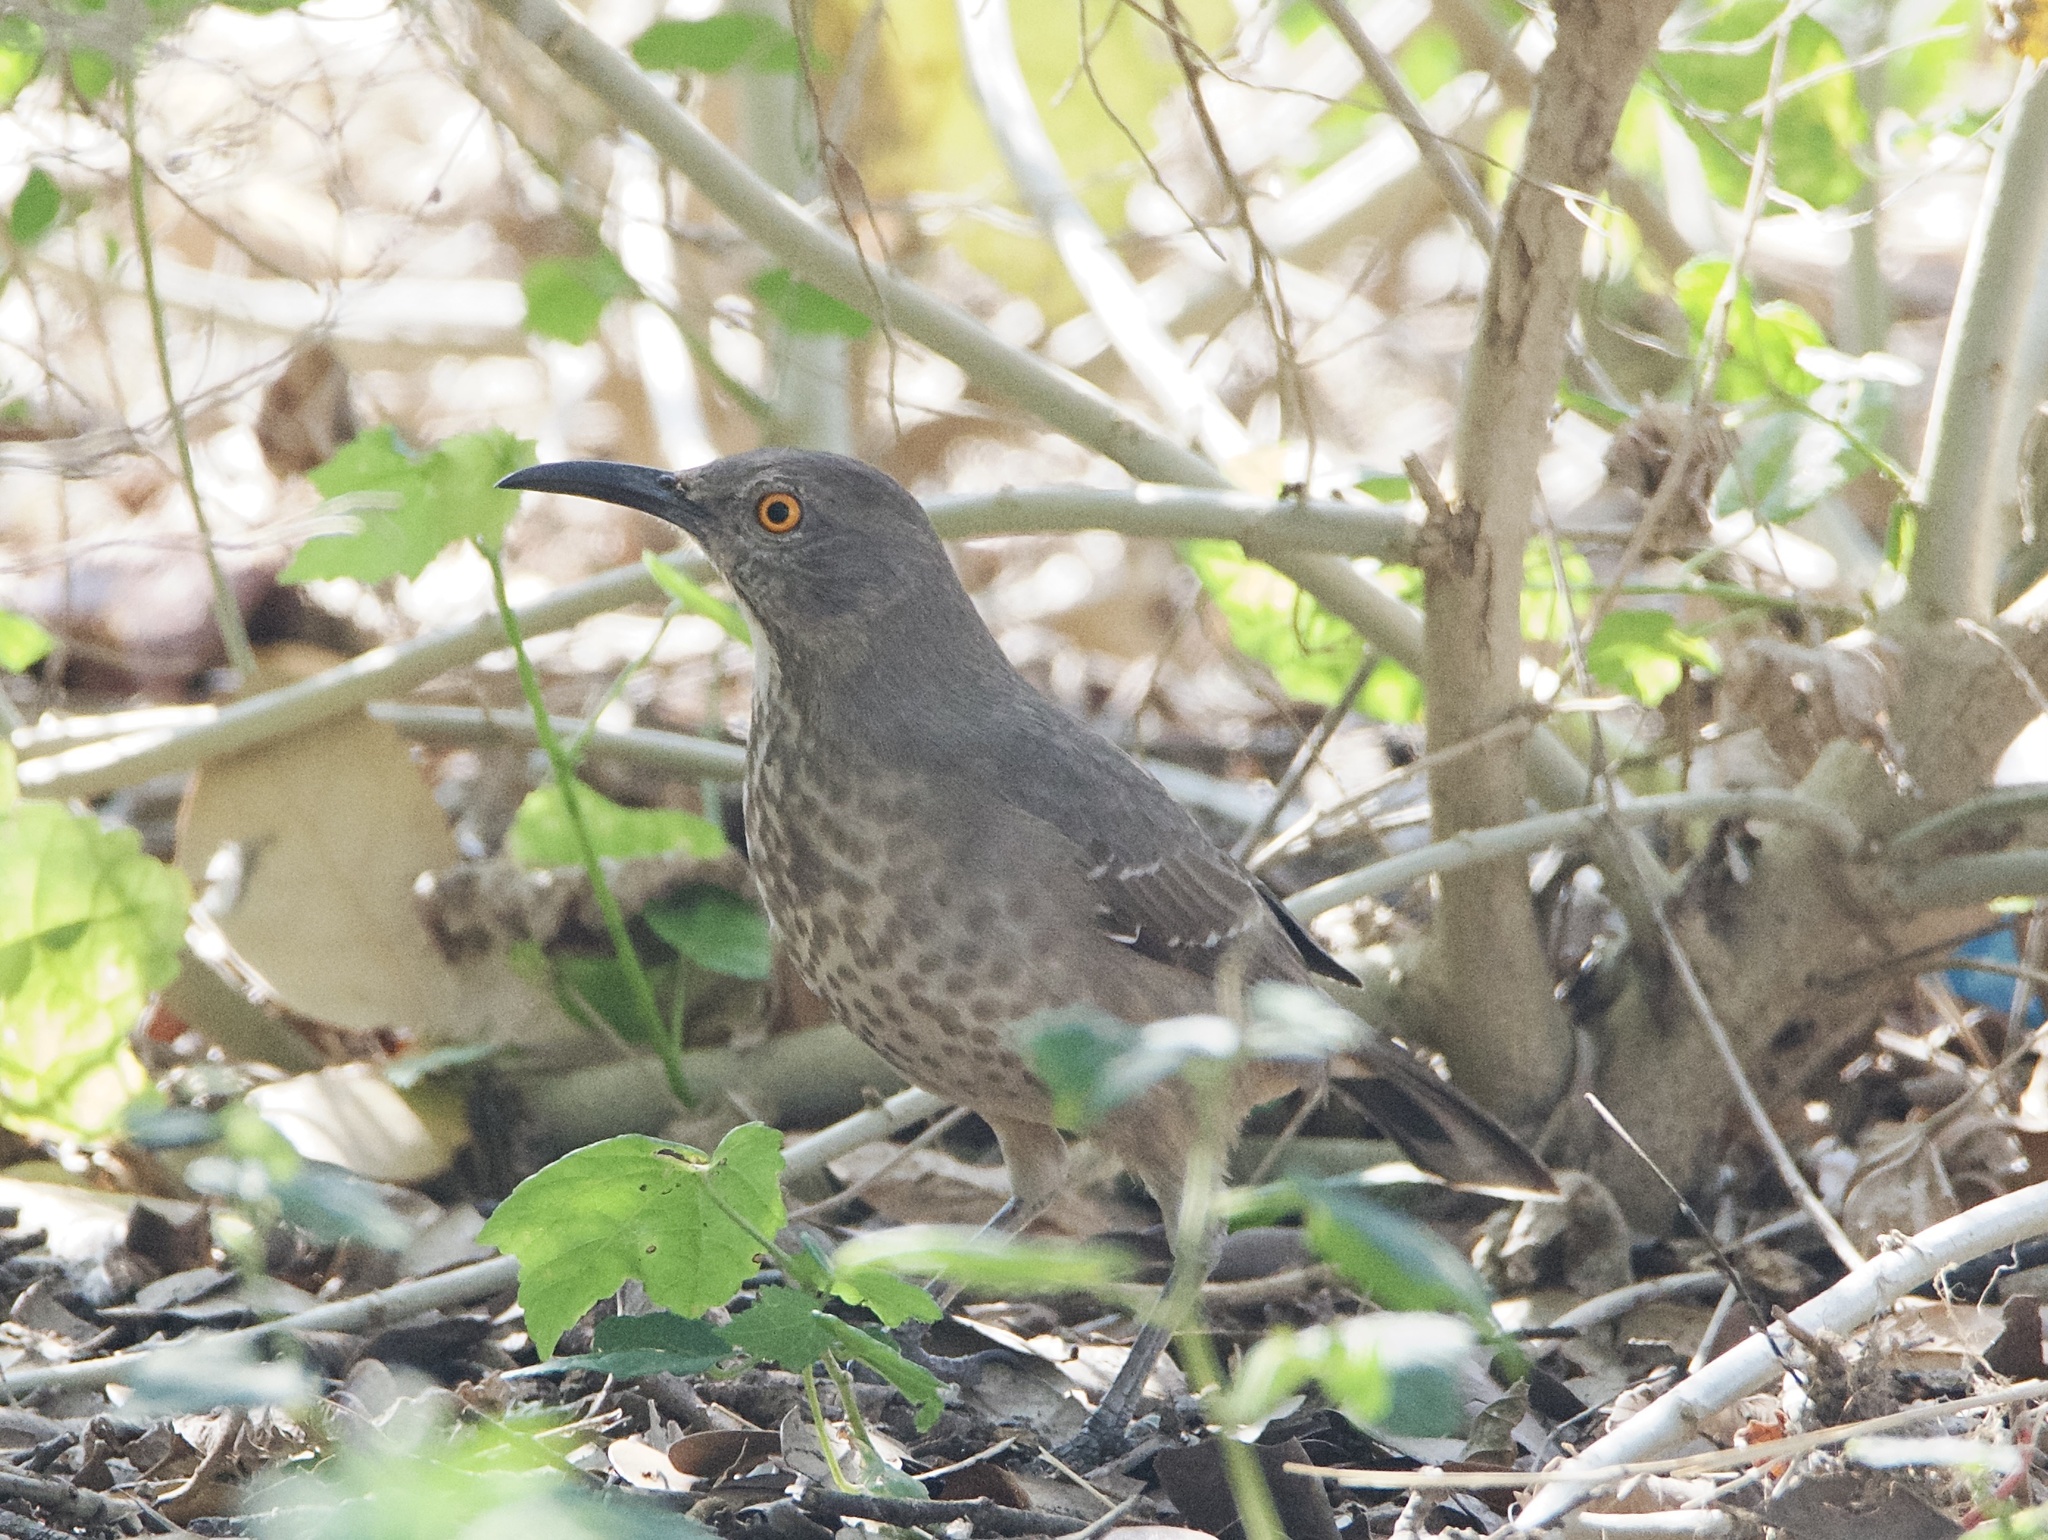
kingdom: Animalia
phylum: Chordata
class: Aves
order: Passeriformes
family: Mimidae
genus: Toxostoma
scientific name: Toxostoma curvirostre
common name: Curve-billed thrasher
